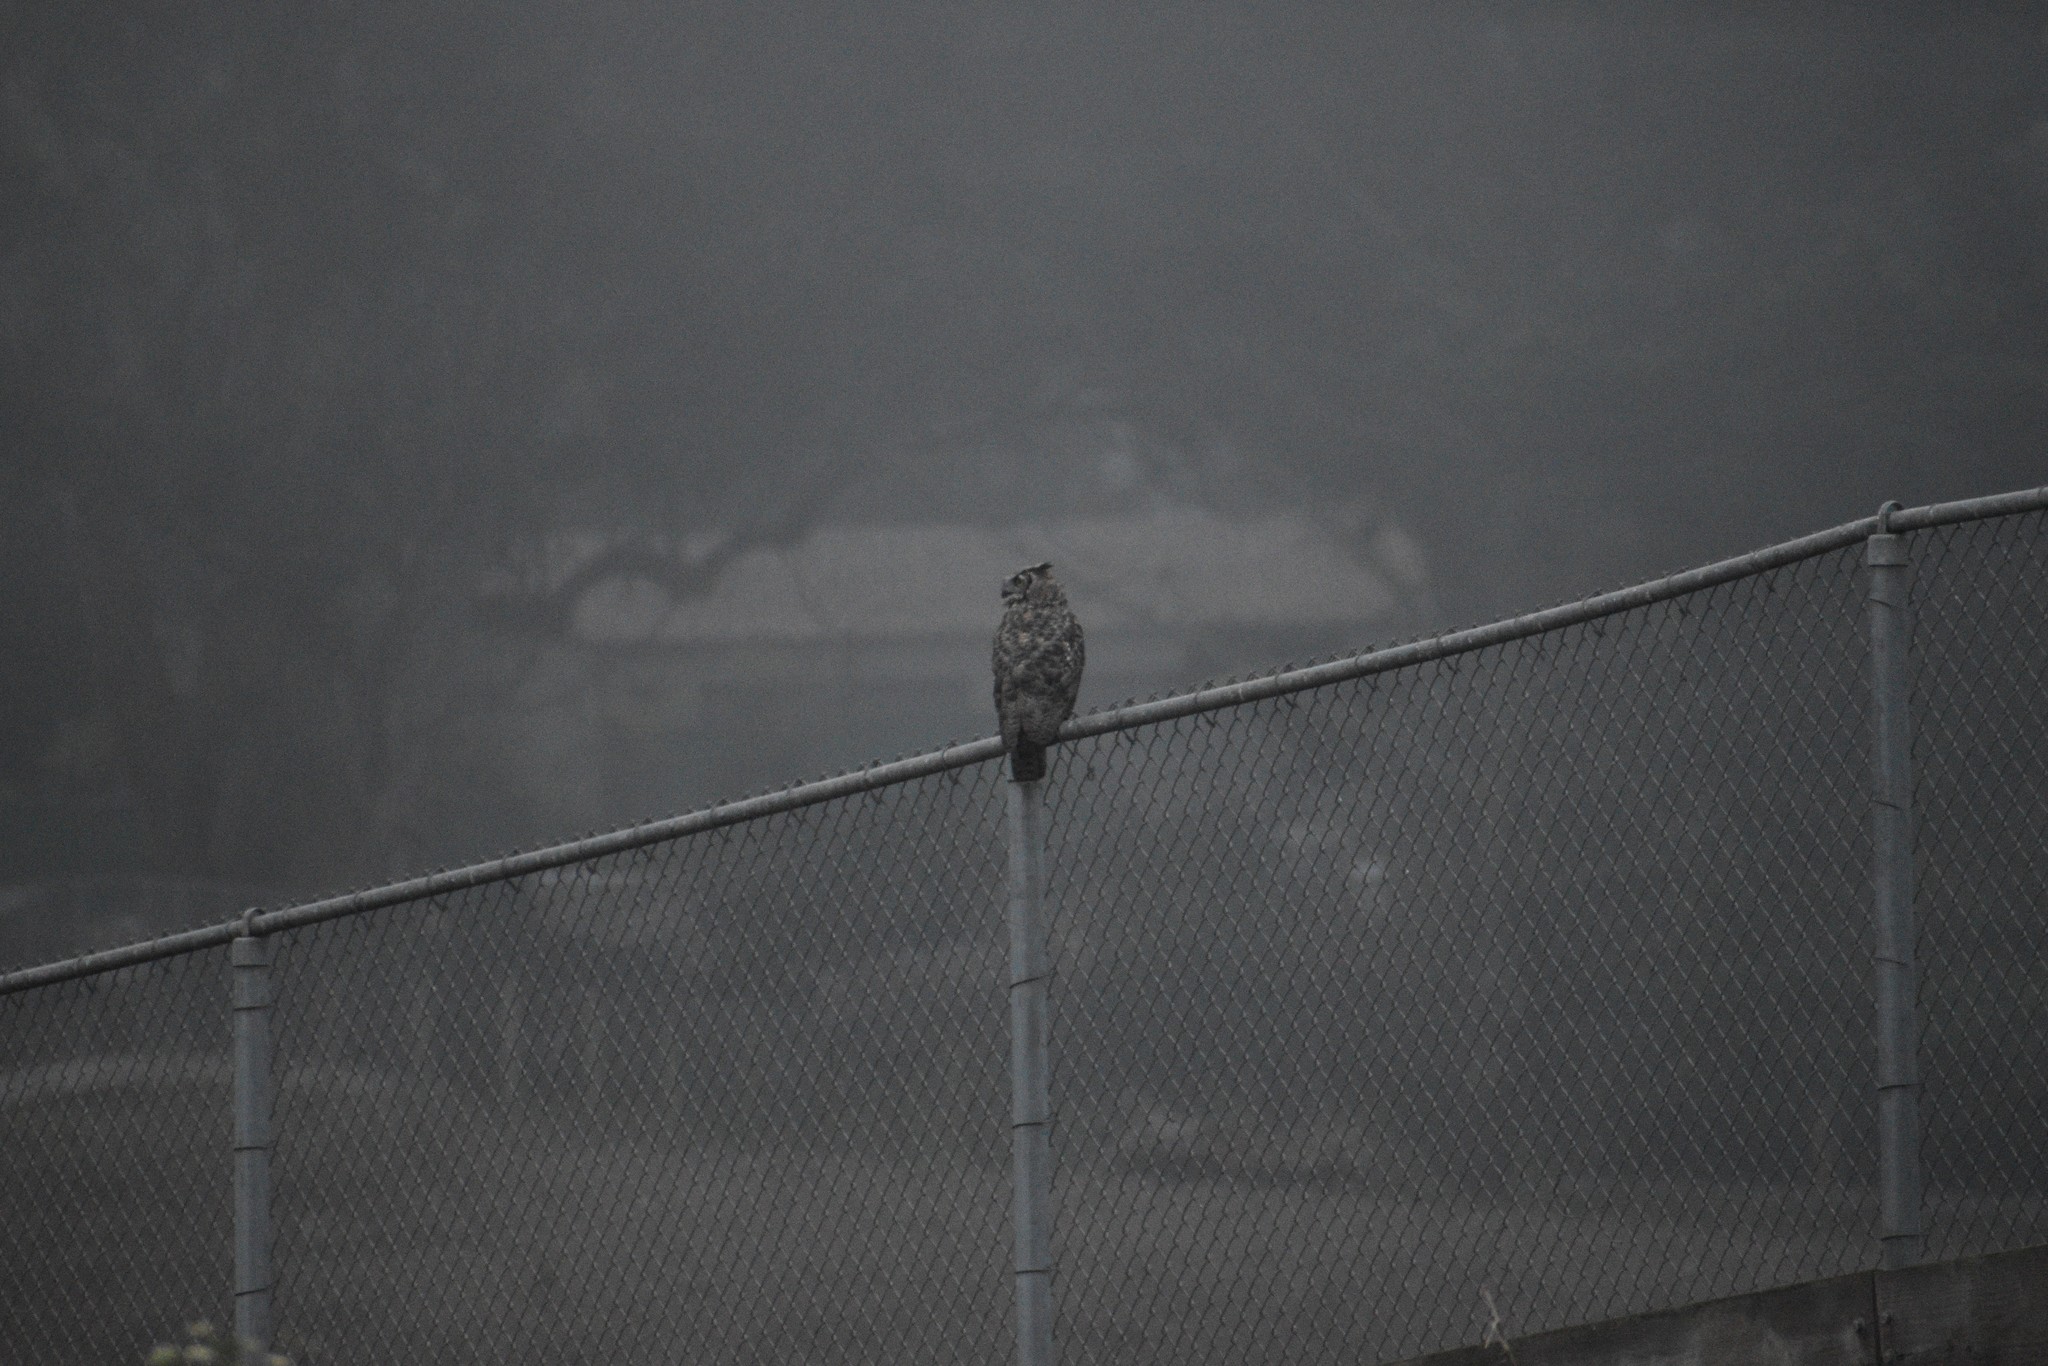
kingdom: Animalia
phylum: Chordata
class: Aves
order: Strigiformes
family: Strigidae
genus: Bubo
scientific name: Bubo virginianus
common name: Great horned owl
